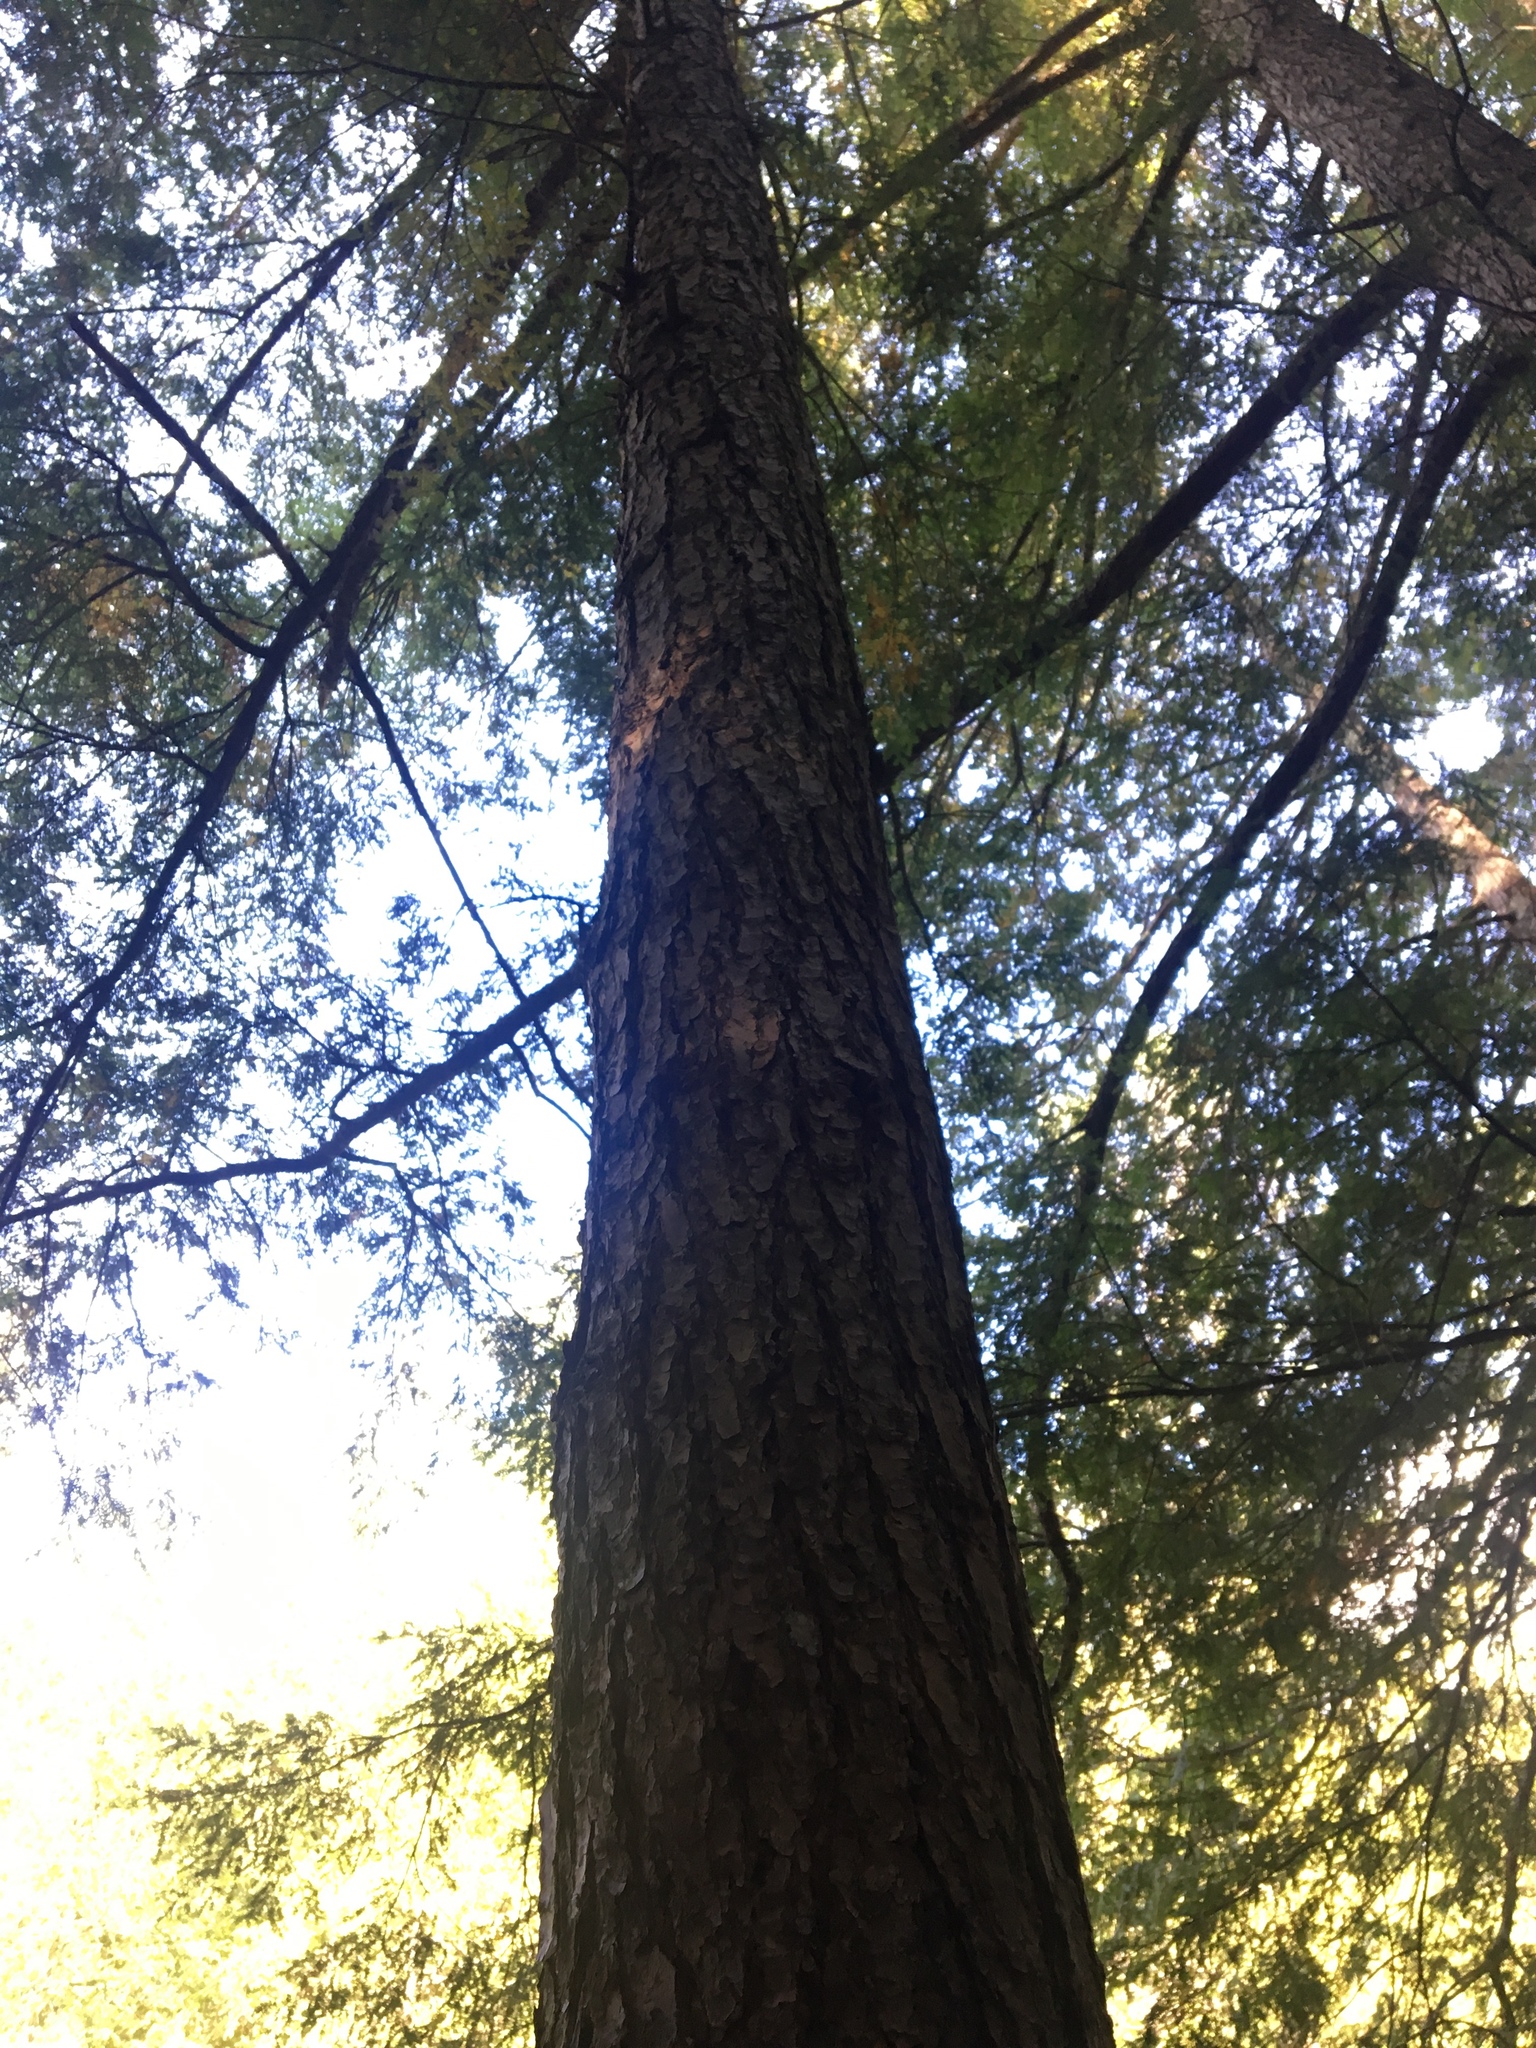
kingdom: Plantae
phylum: Tracheophyta
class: Pinopsida
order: Pinales
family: Pinaceae
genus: Tsuga
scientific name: Tsuga canadensis
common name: Eastern hemlock
